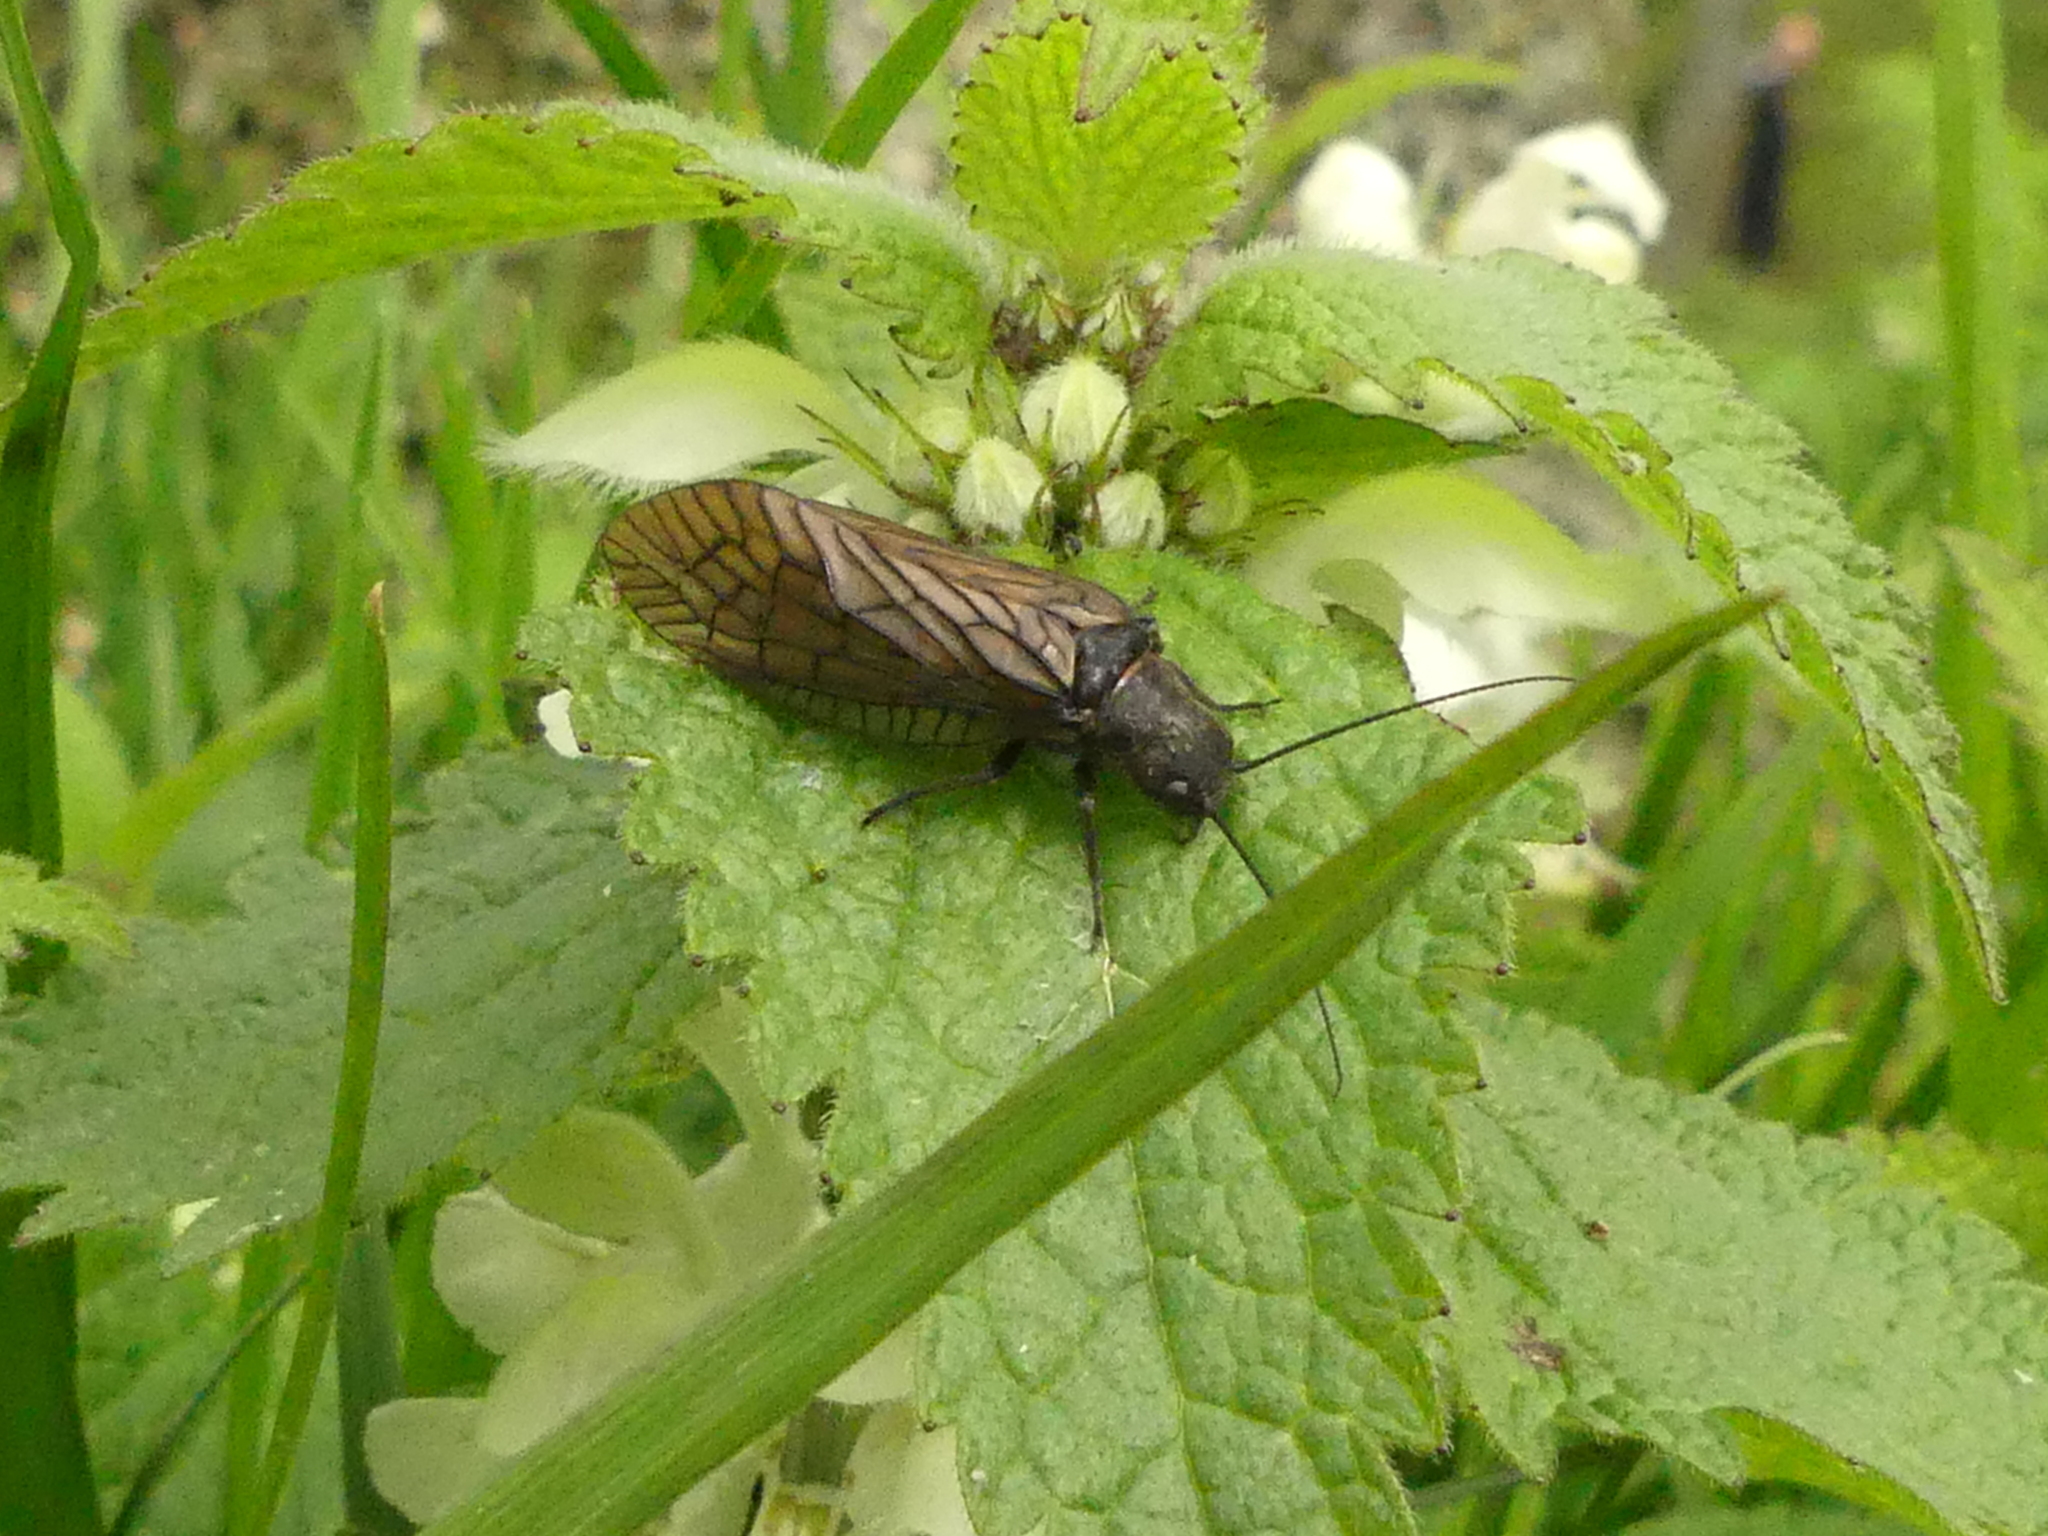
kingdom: Animalia
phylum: Arthropoda
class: Insecta
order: Megaloptera
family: Sialidae
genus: Sialis
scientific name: Sialis
